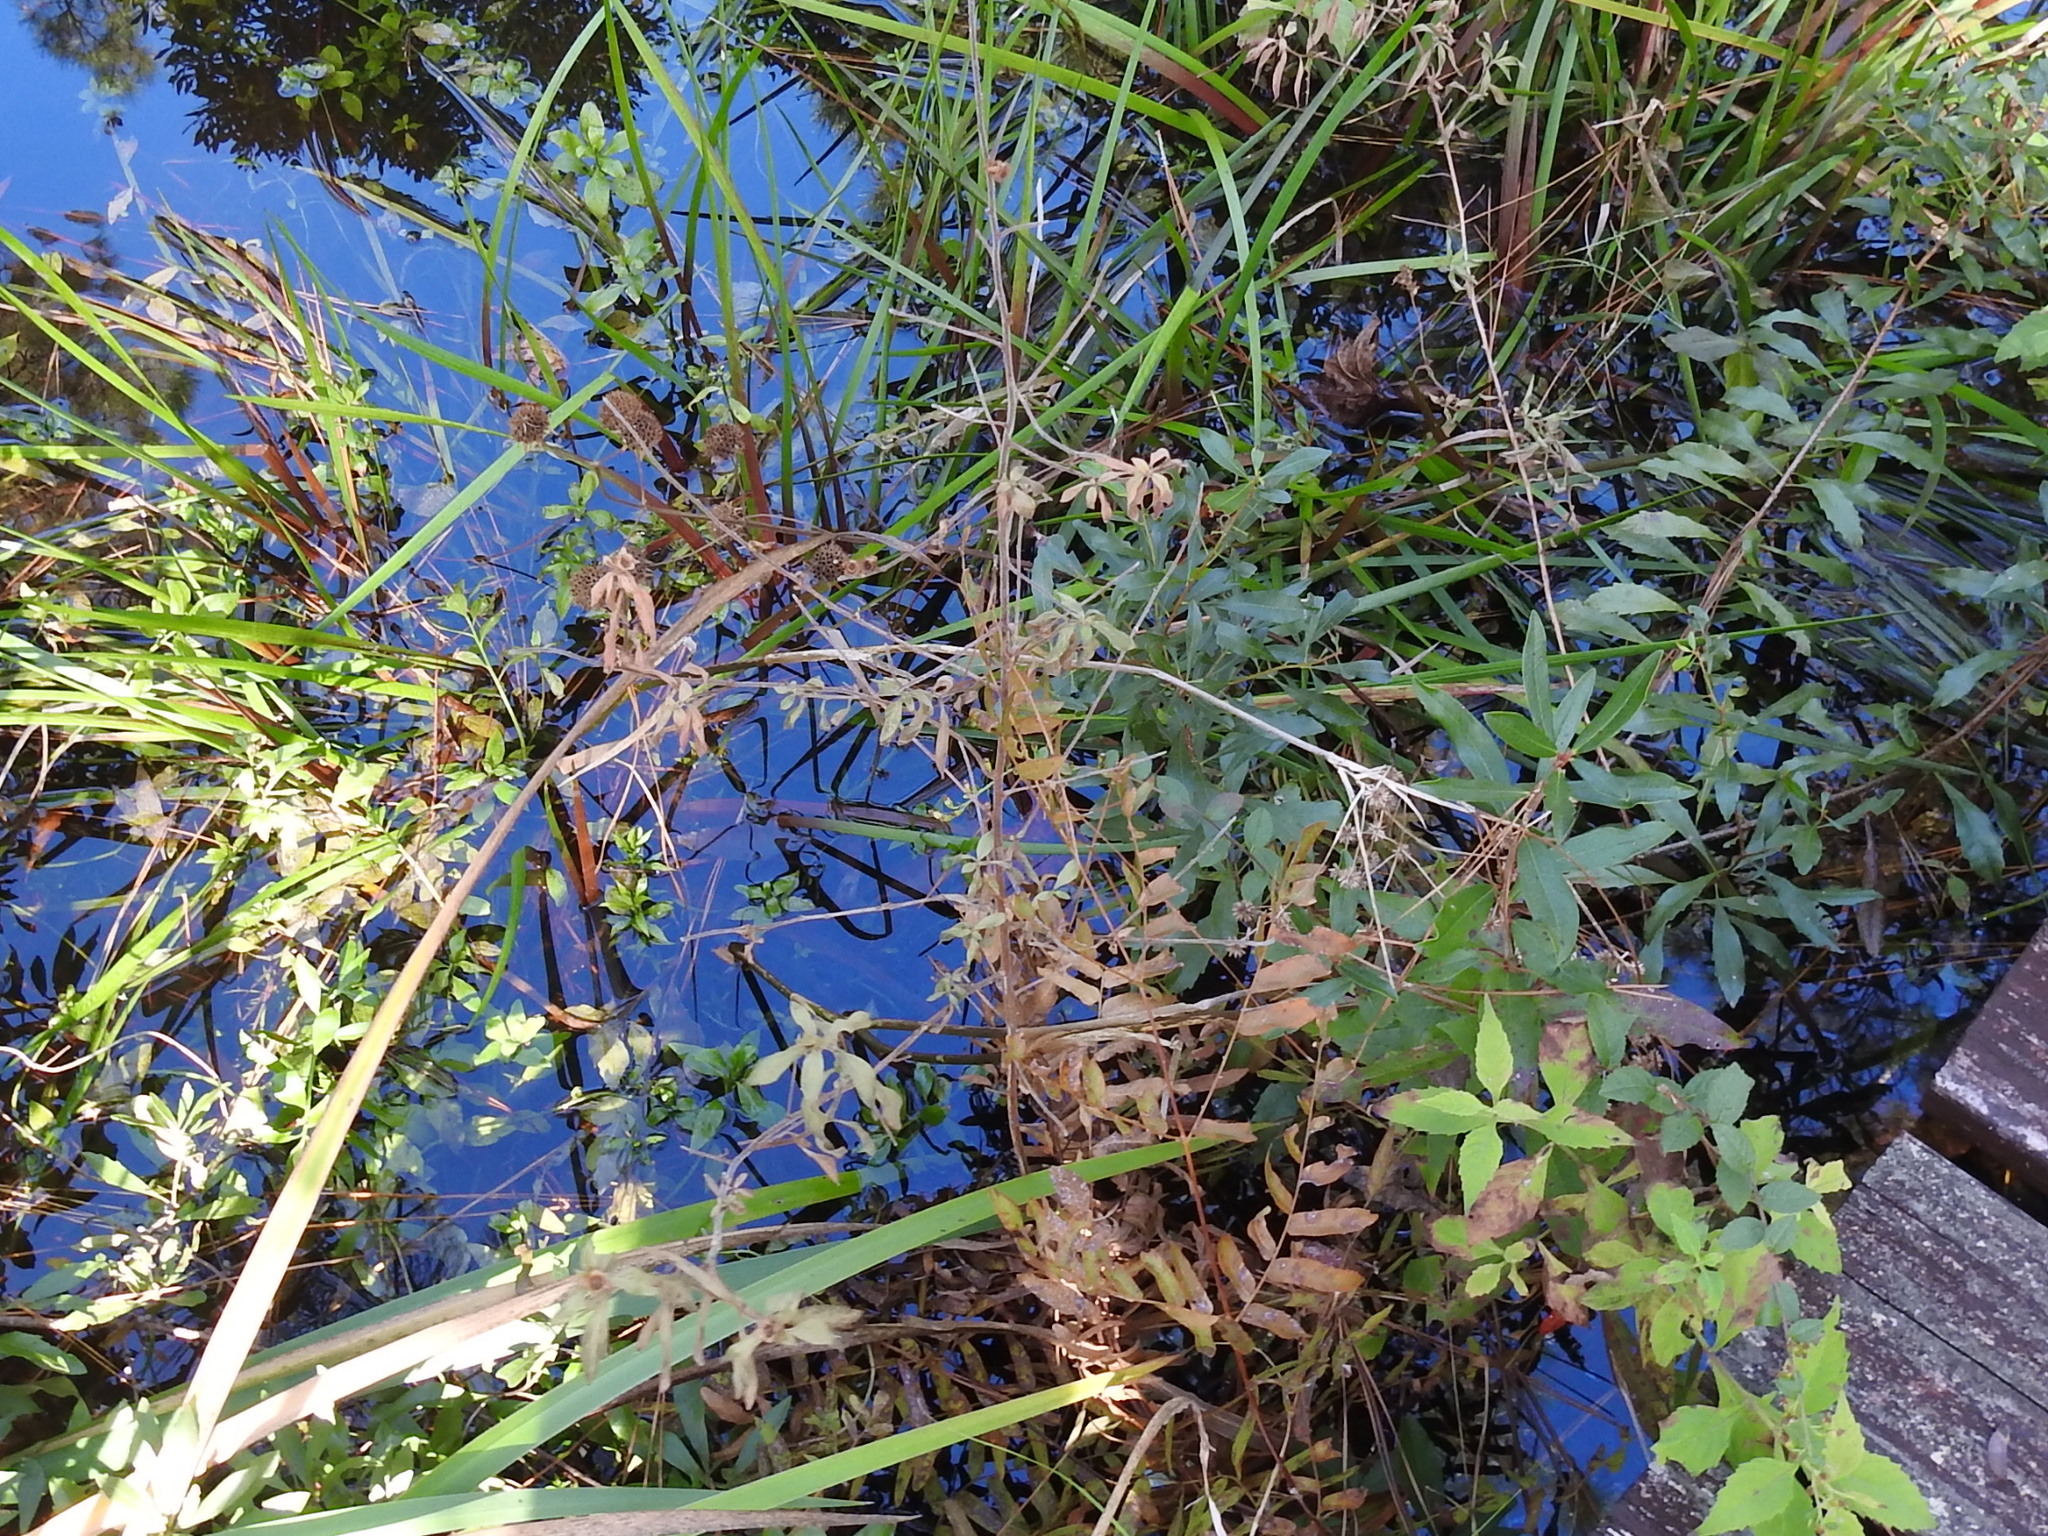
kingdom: Plantae
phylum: Tracheophyta
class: Magnoliopsida
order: Myrtales
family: Onagraceae
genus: Ludwigia
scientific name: Ludwigia pilosa
